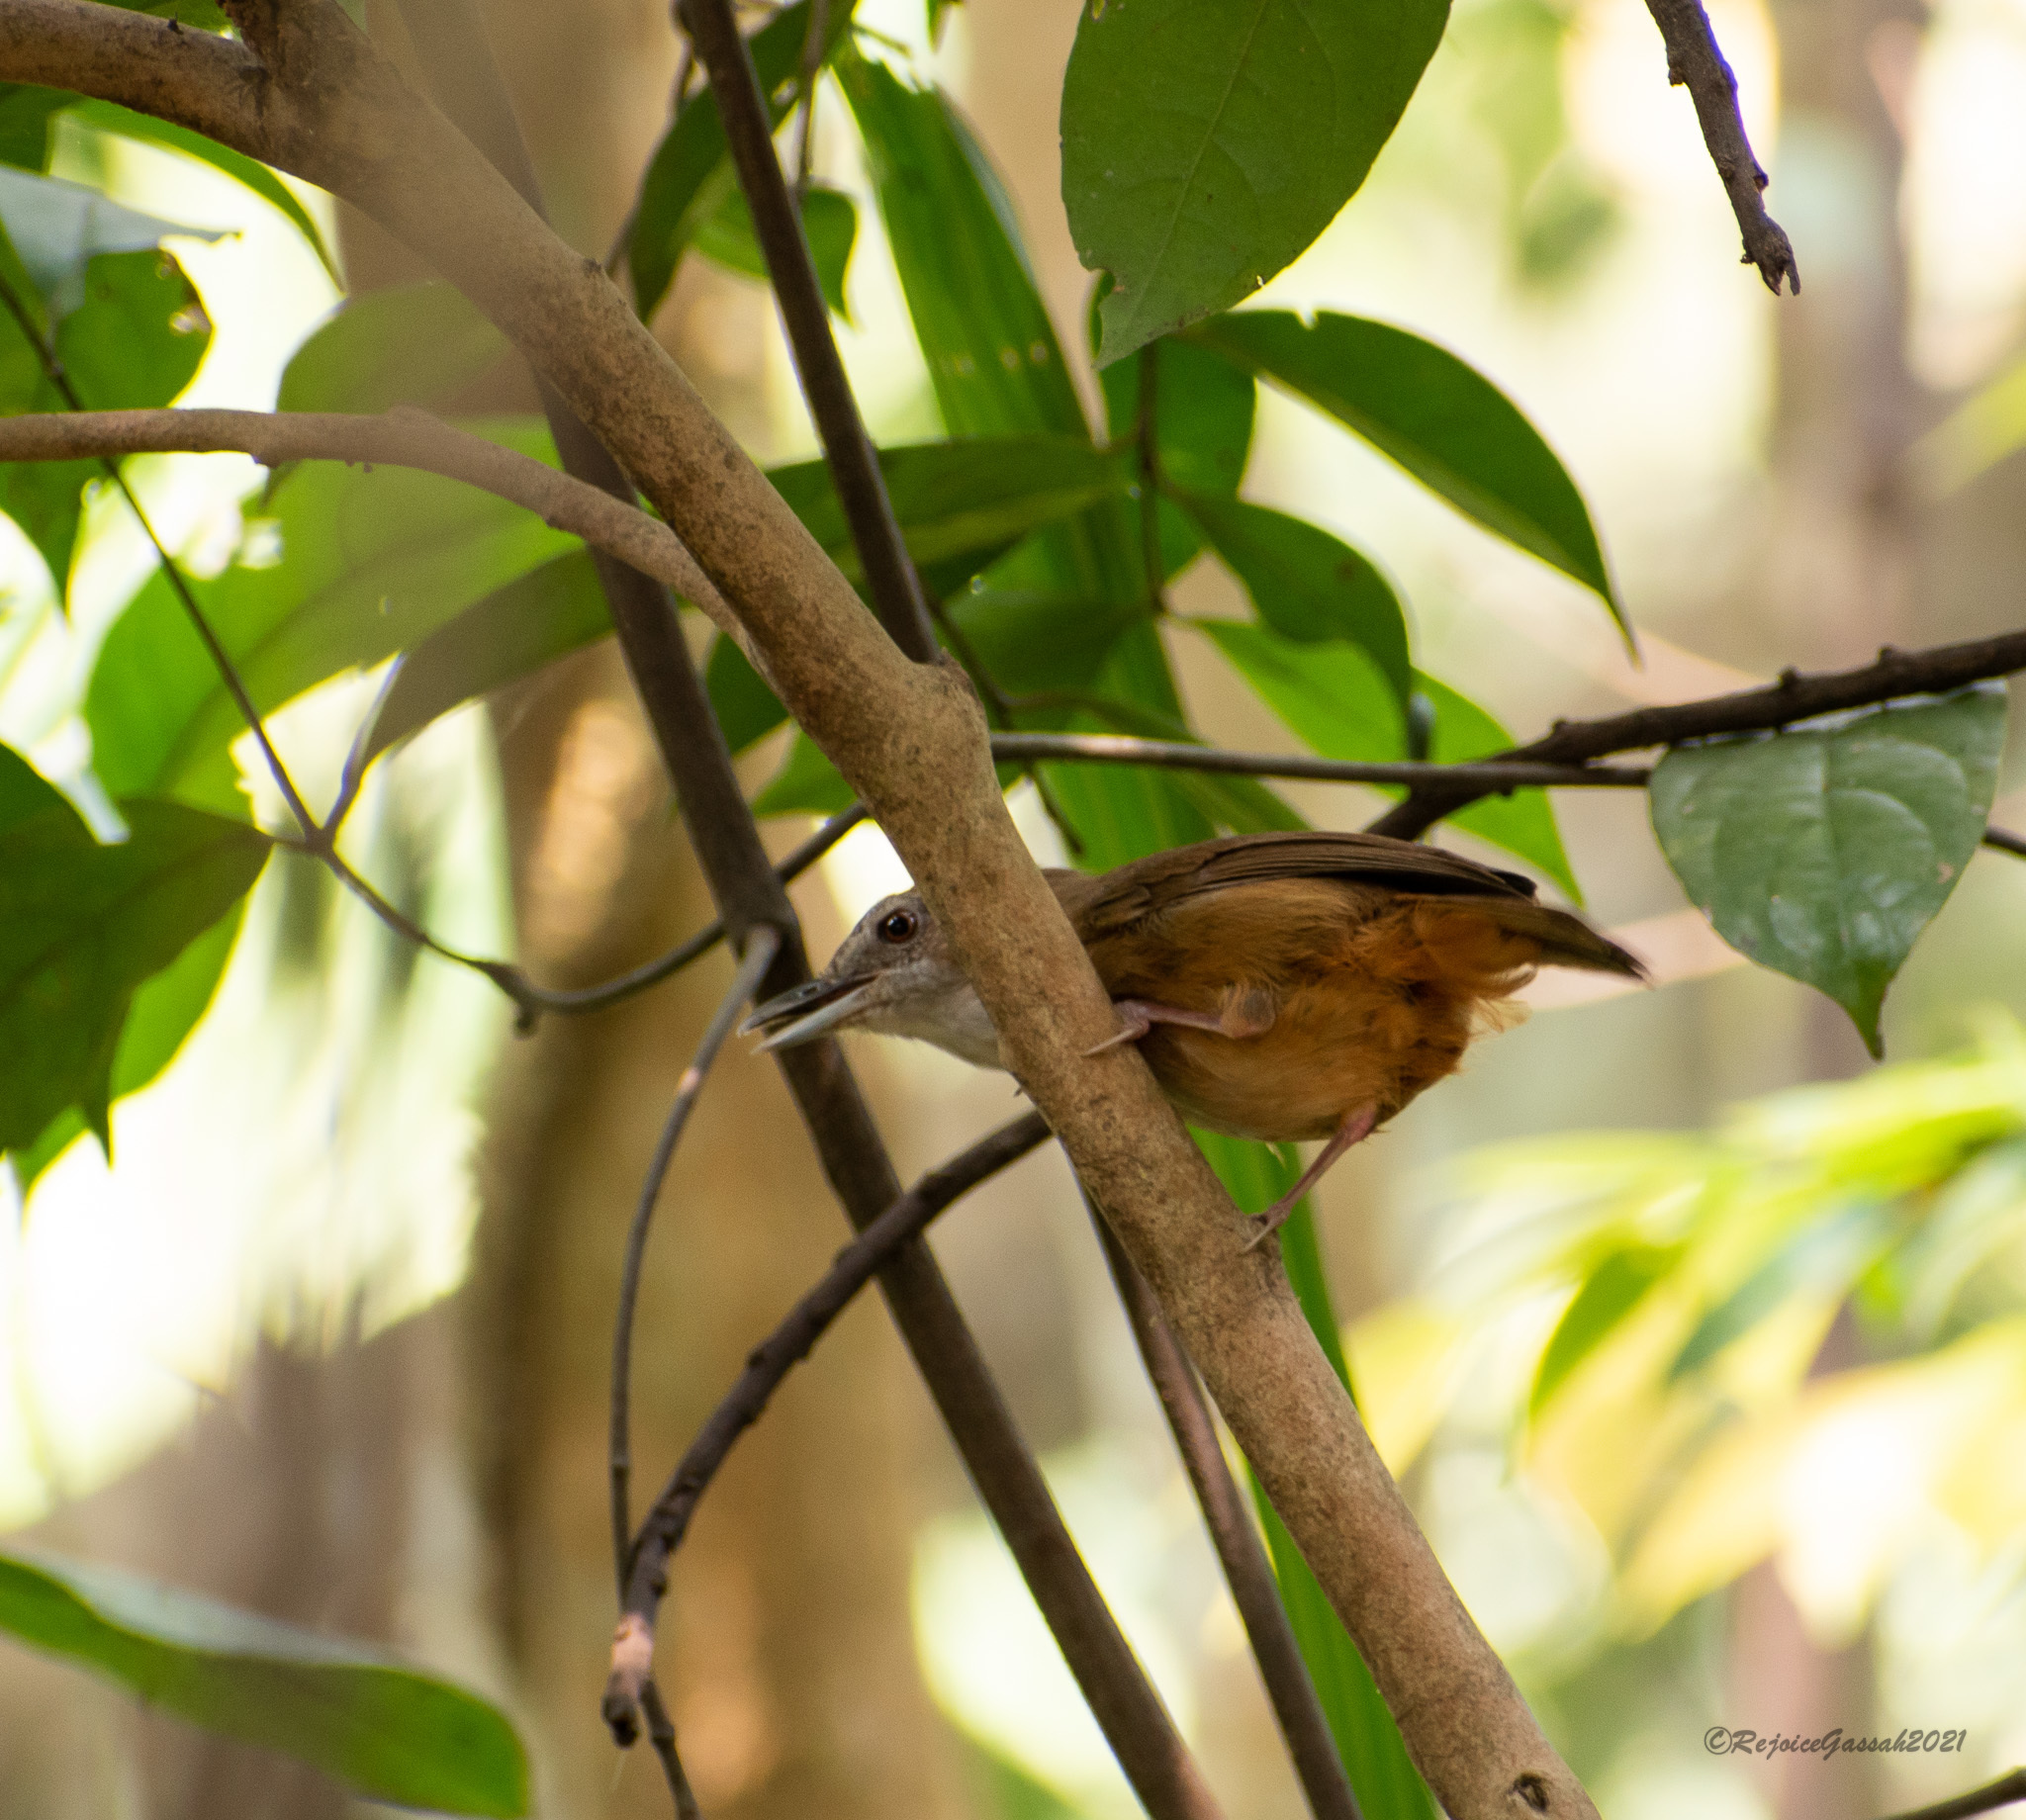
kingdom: Animalia
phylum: Chordata
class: Aves
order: Passeriformes
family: Pellorneidae
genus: Malacocincla
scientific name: Malacocincla abbotti
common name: Abbott's babbler
